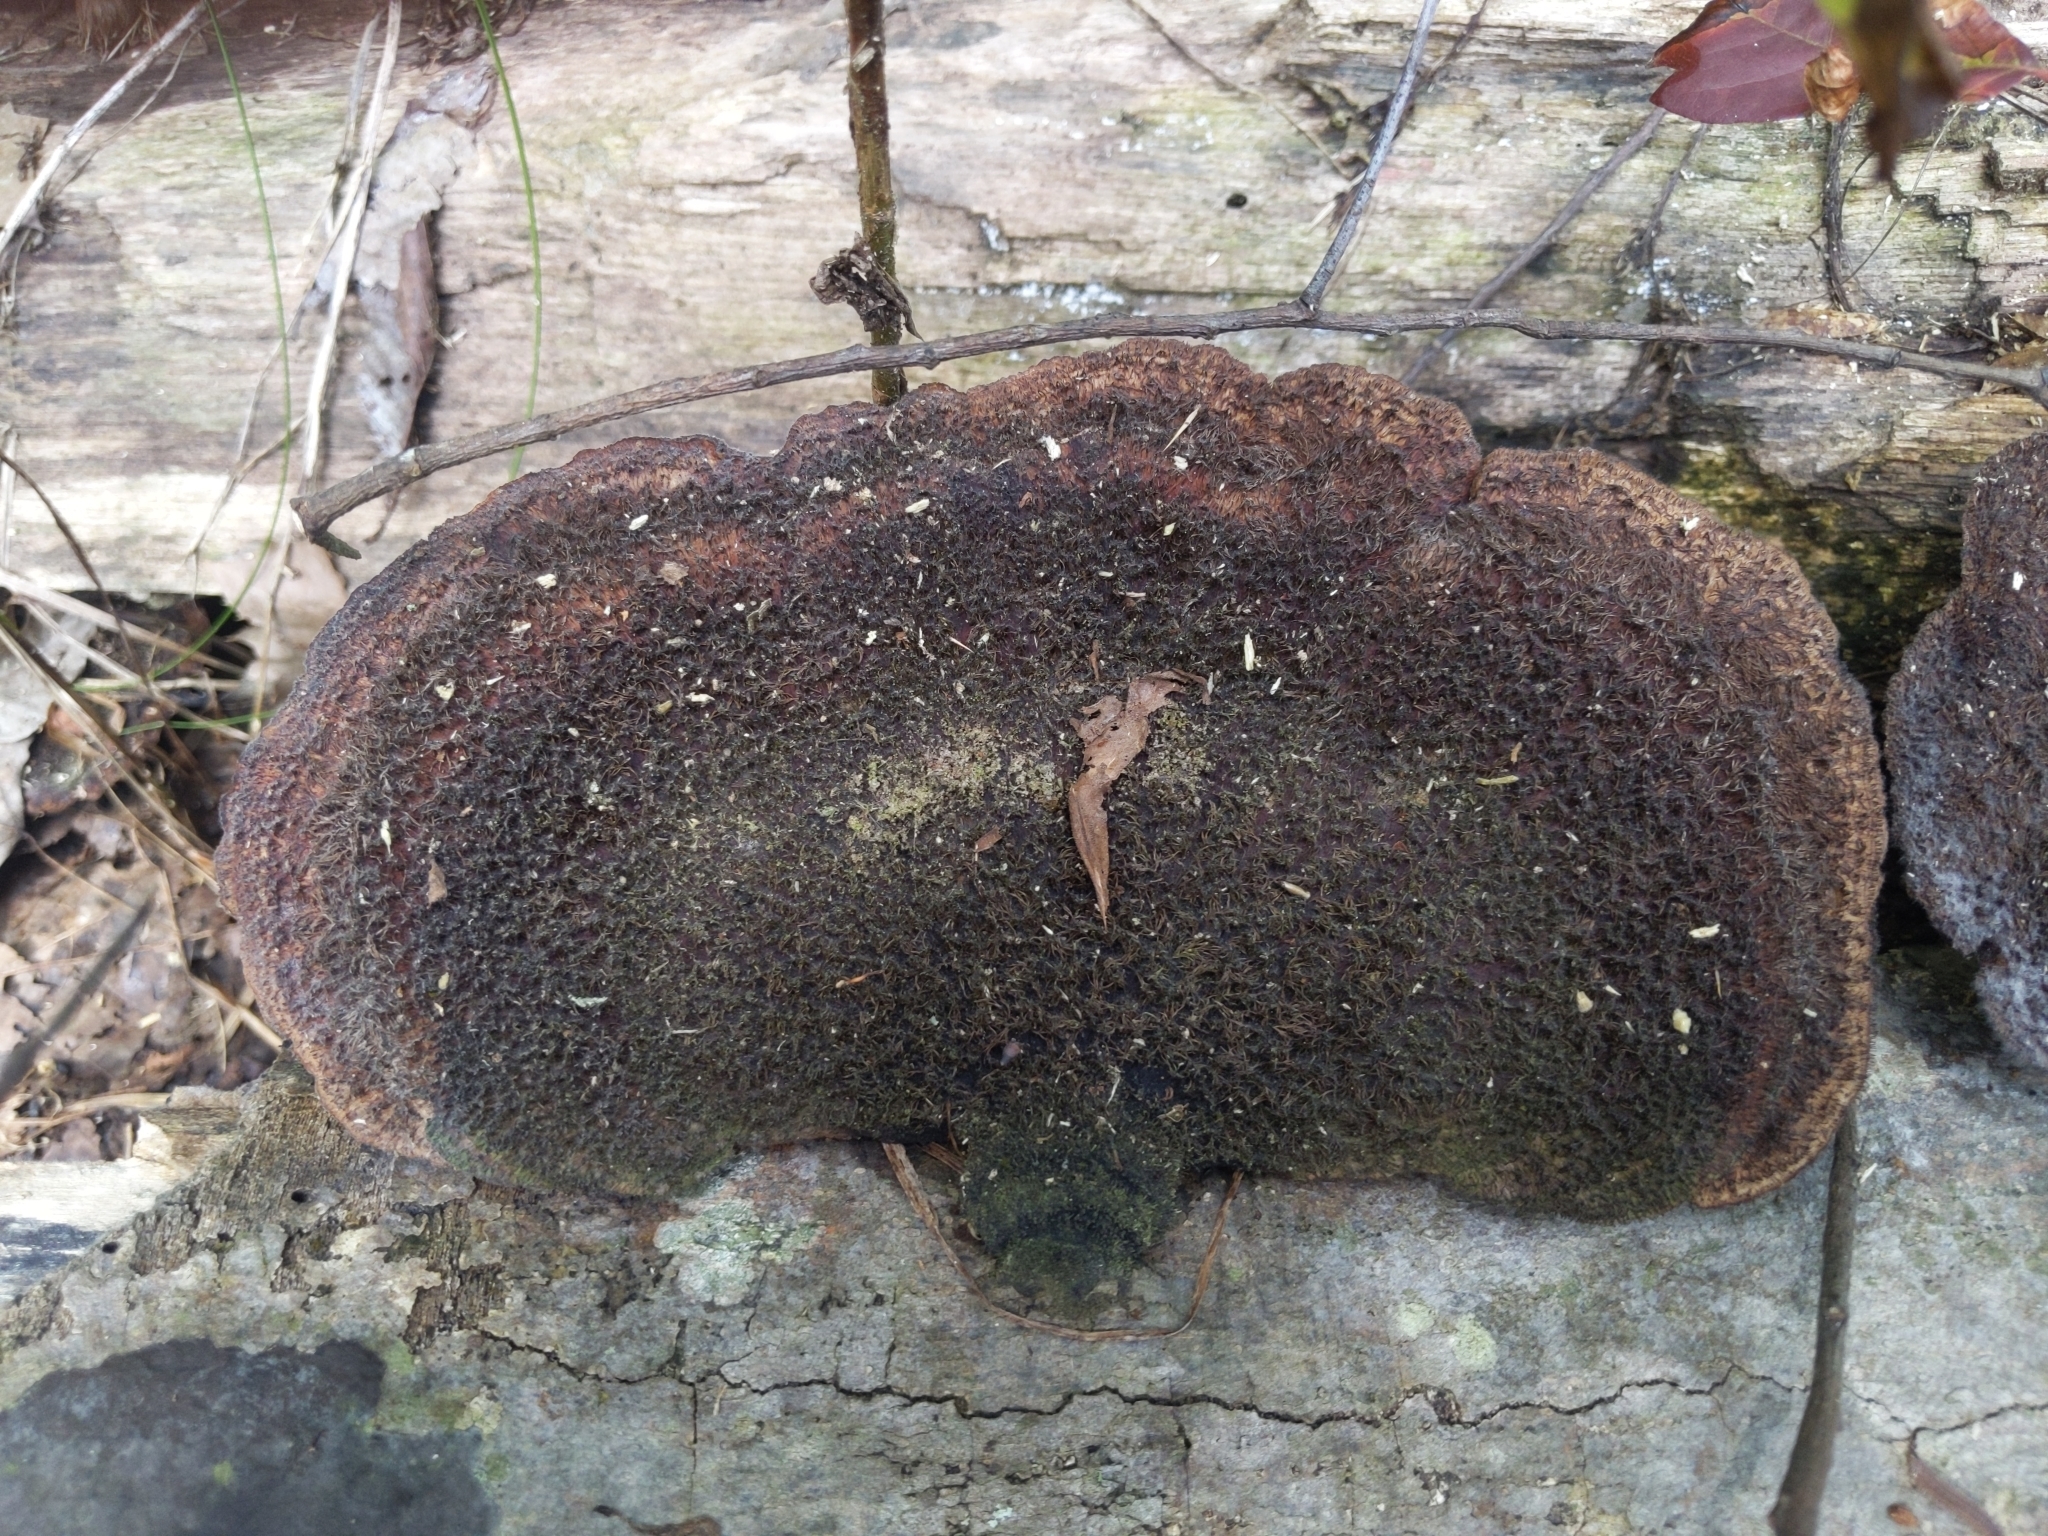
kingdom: Fungi
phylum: Basidiomycota
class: Agaricomycetes
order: Polyporales
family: Cerrenaceae
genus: Cerrena
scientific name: Cerrena hydnoides
